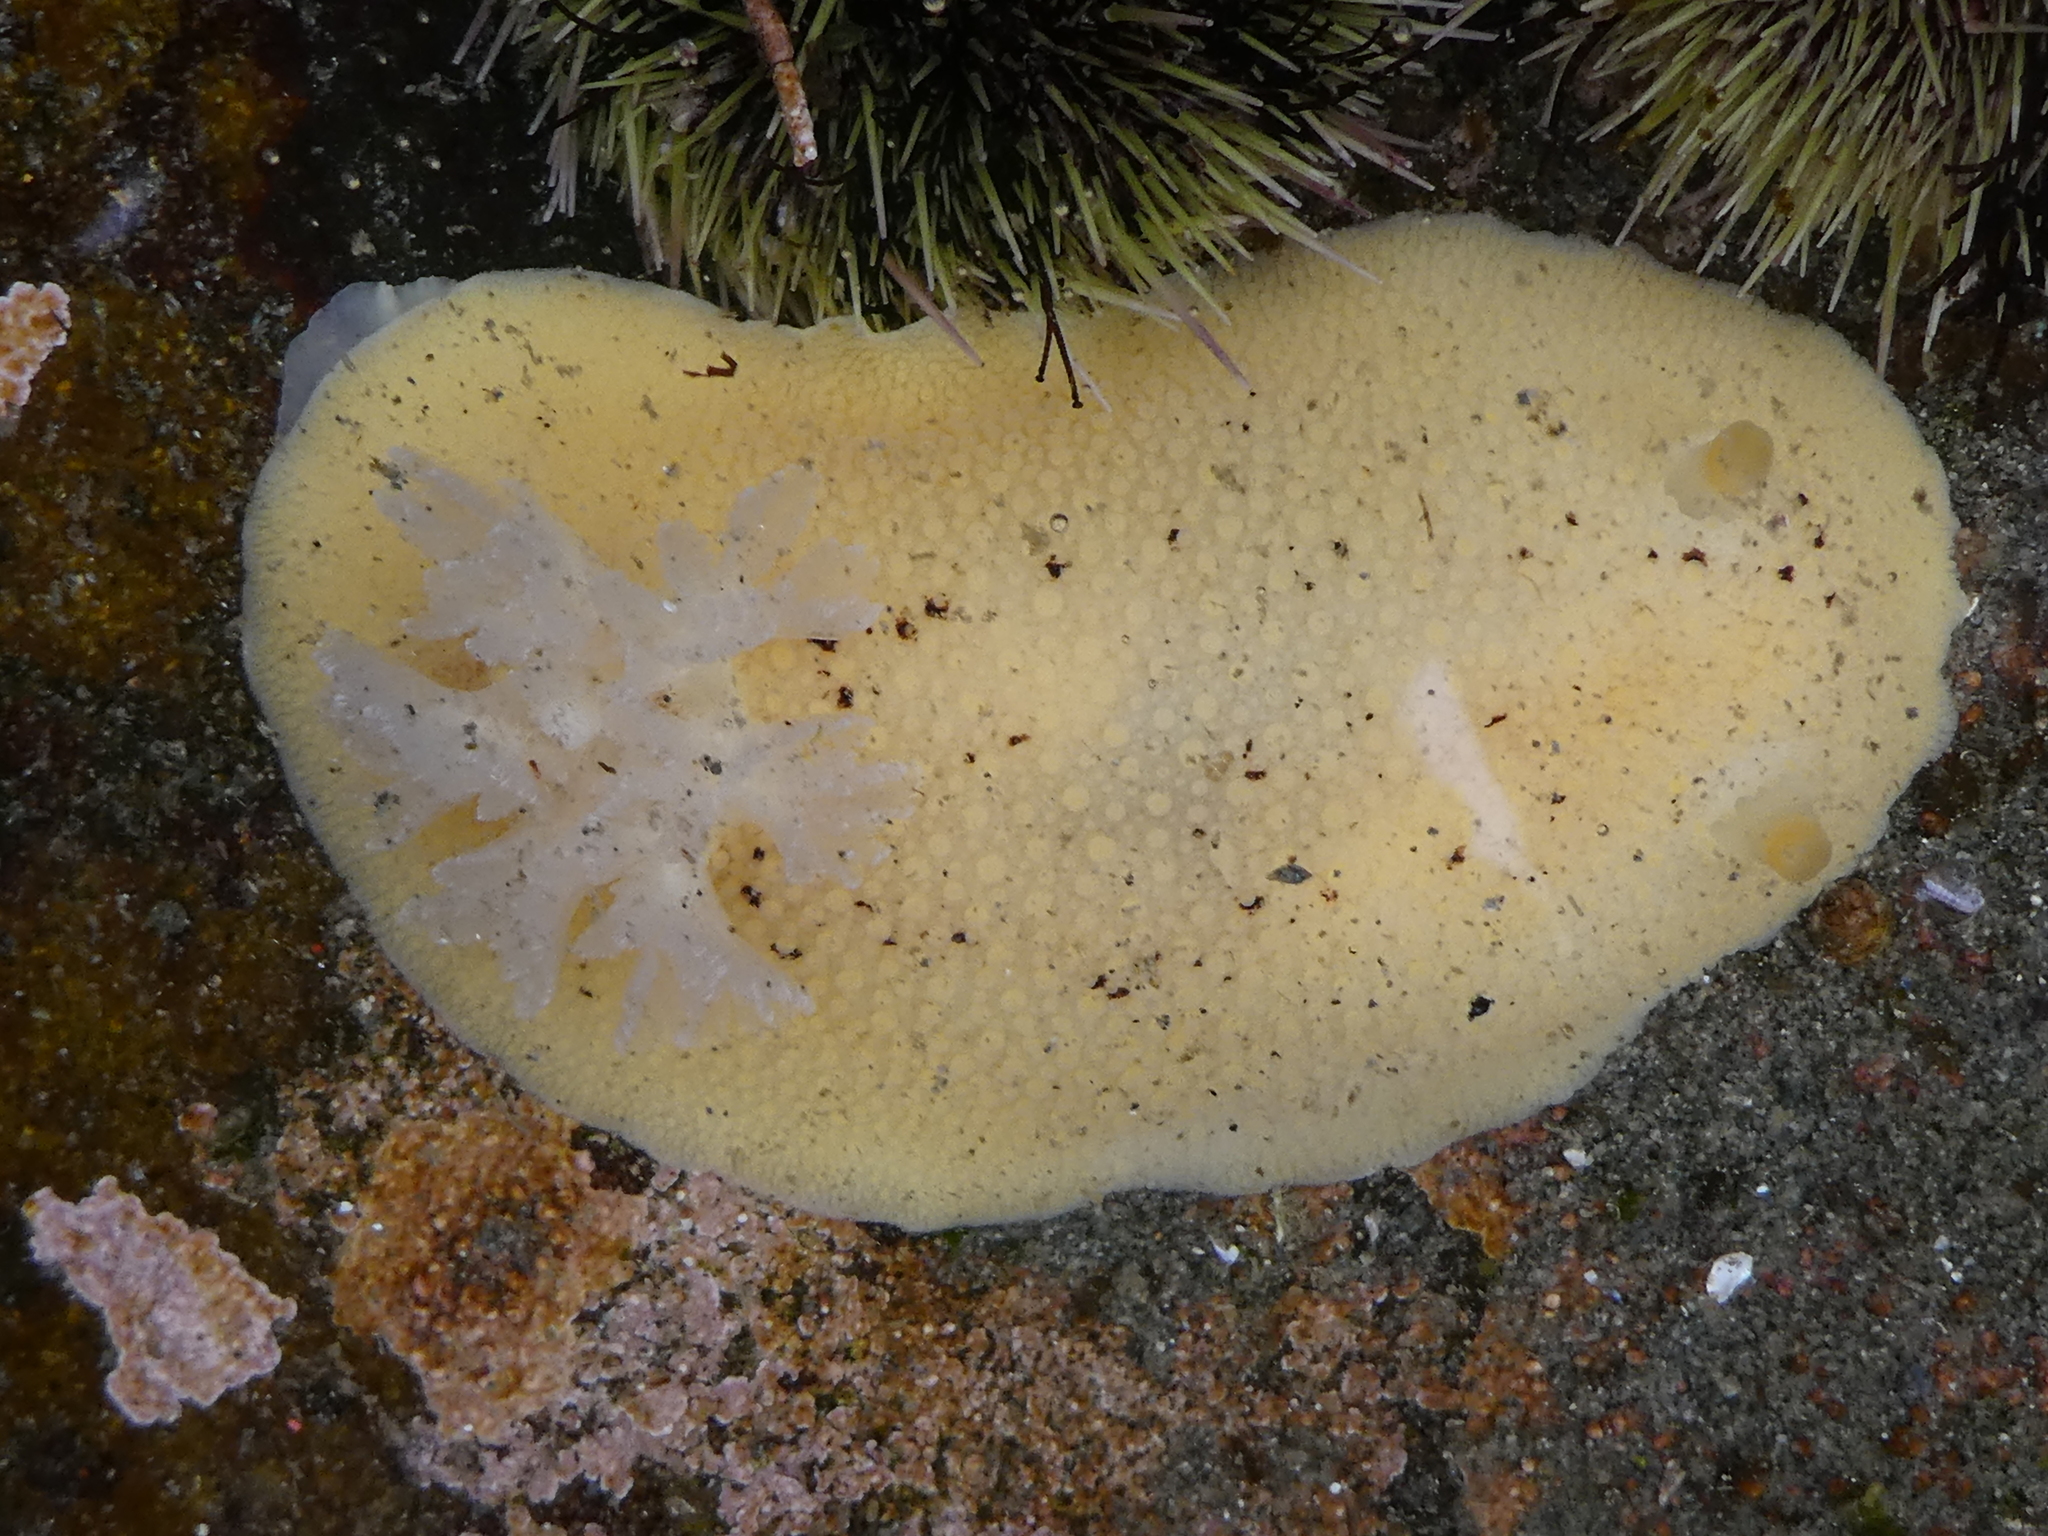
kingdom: Animalia
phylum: Mollusca
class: Gastropoda
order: Nudibranchia
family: Discodorididae
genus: Peltodoris
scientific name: Peltodoris nobilis
